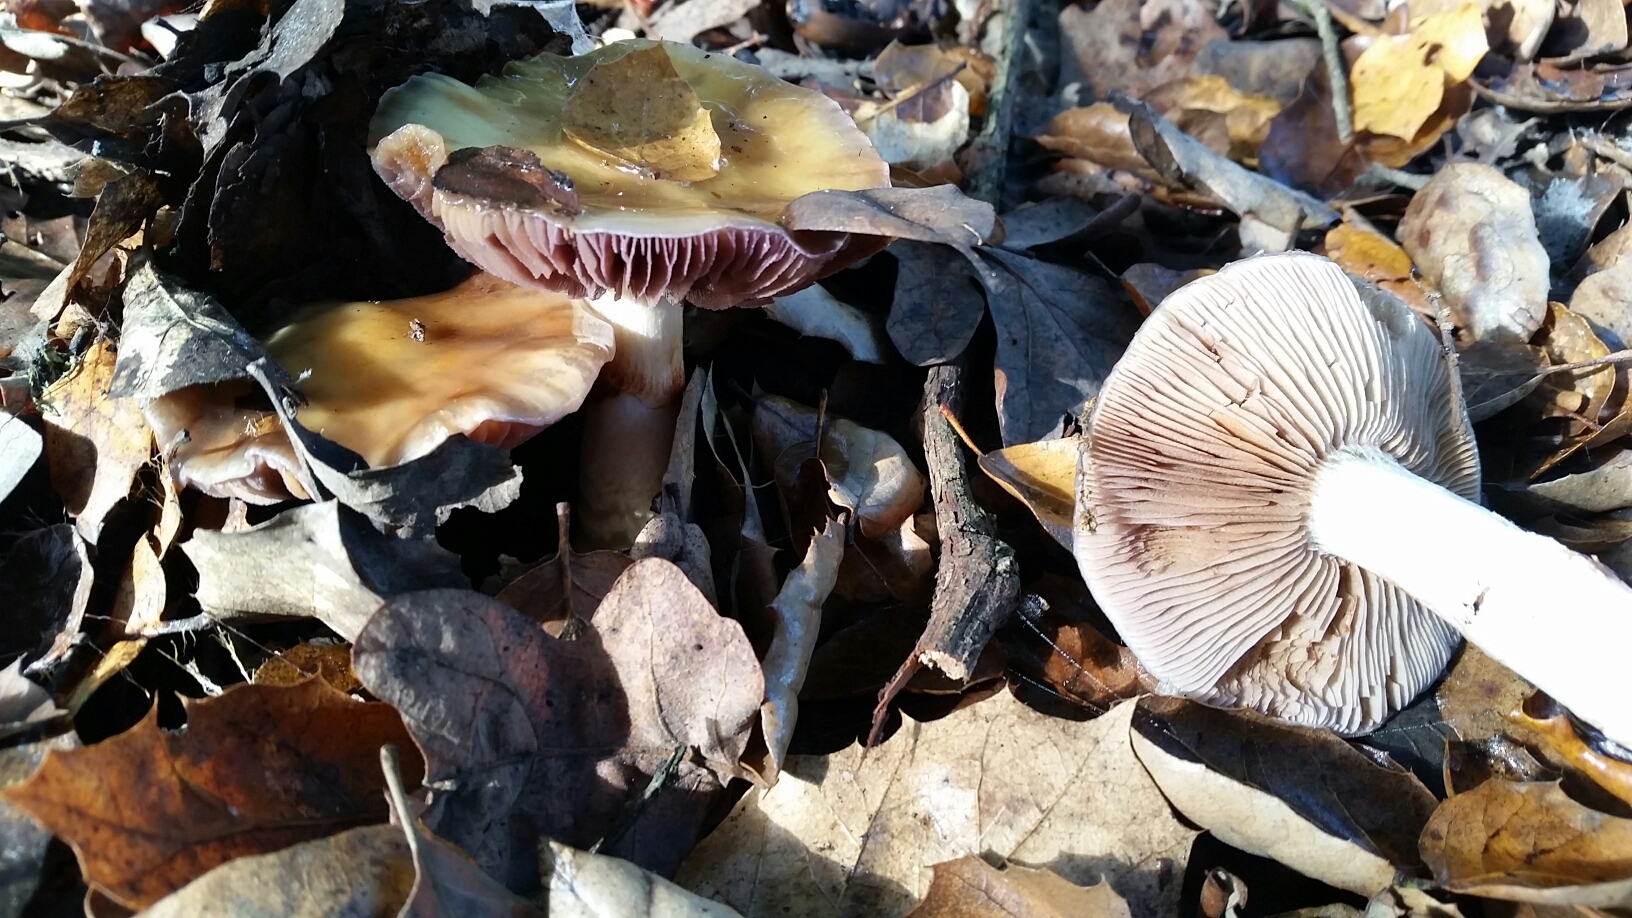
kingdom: Fungi
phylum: Basidiomycota
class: Agaricomycetes
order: Agaricales
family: Cortinariaceae
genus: Cortinarius
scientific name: Cortinarius glutinosoarmillatus
